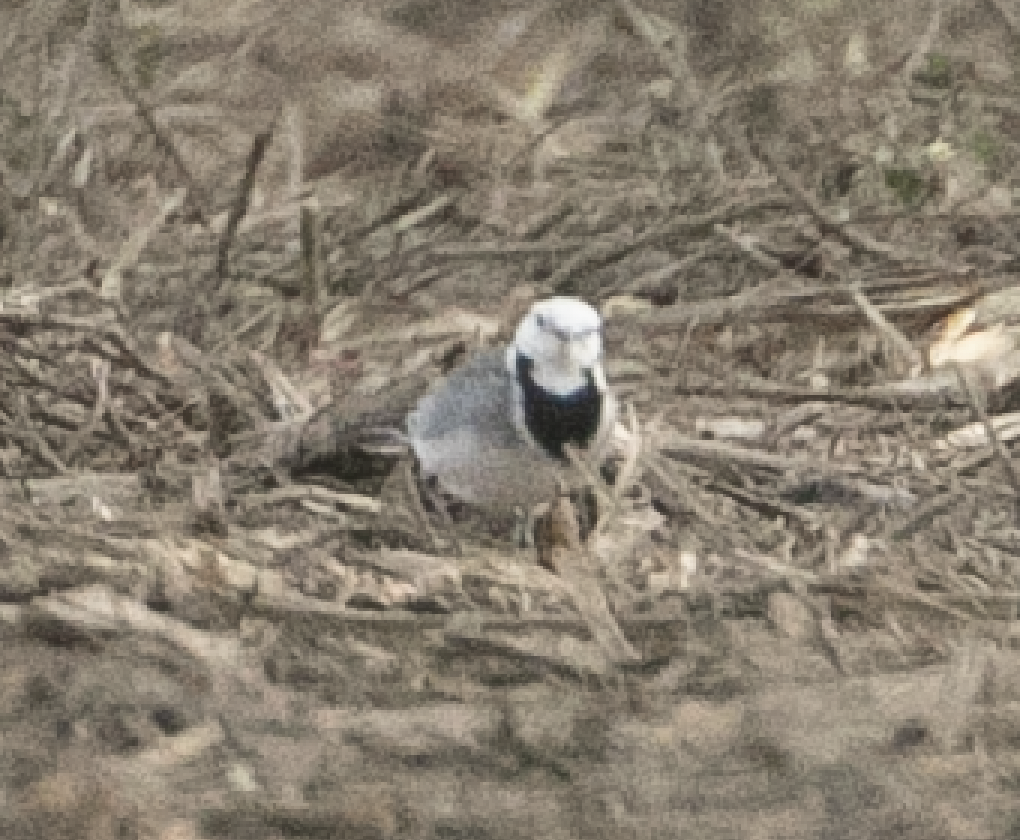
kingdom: Animalia
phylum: Chordata
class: Aves
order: Passeriformes
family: Motacillidae
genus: Motacilla
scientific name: Motacilla alba
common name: White wagtail
